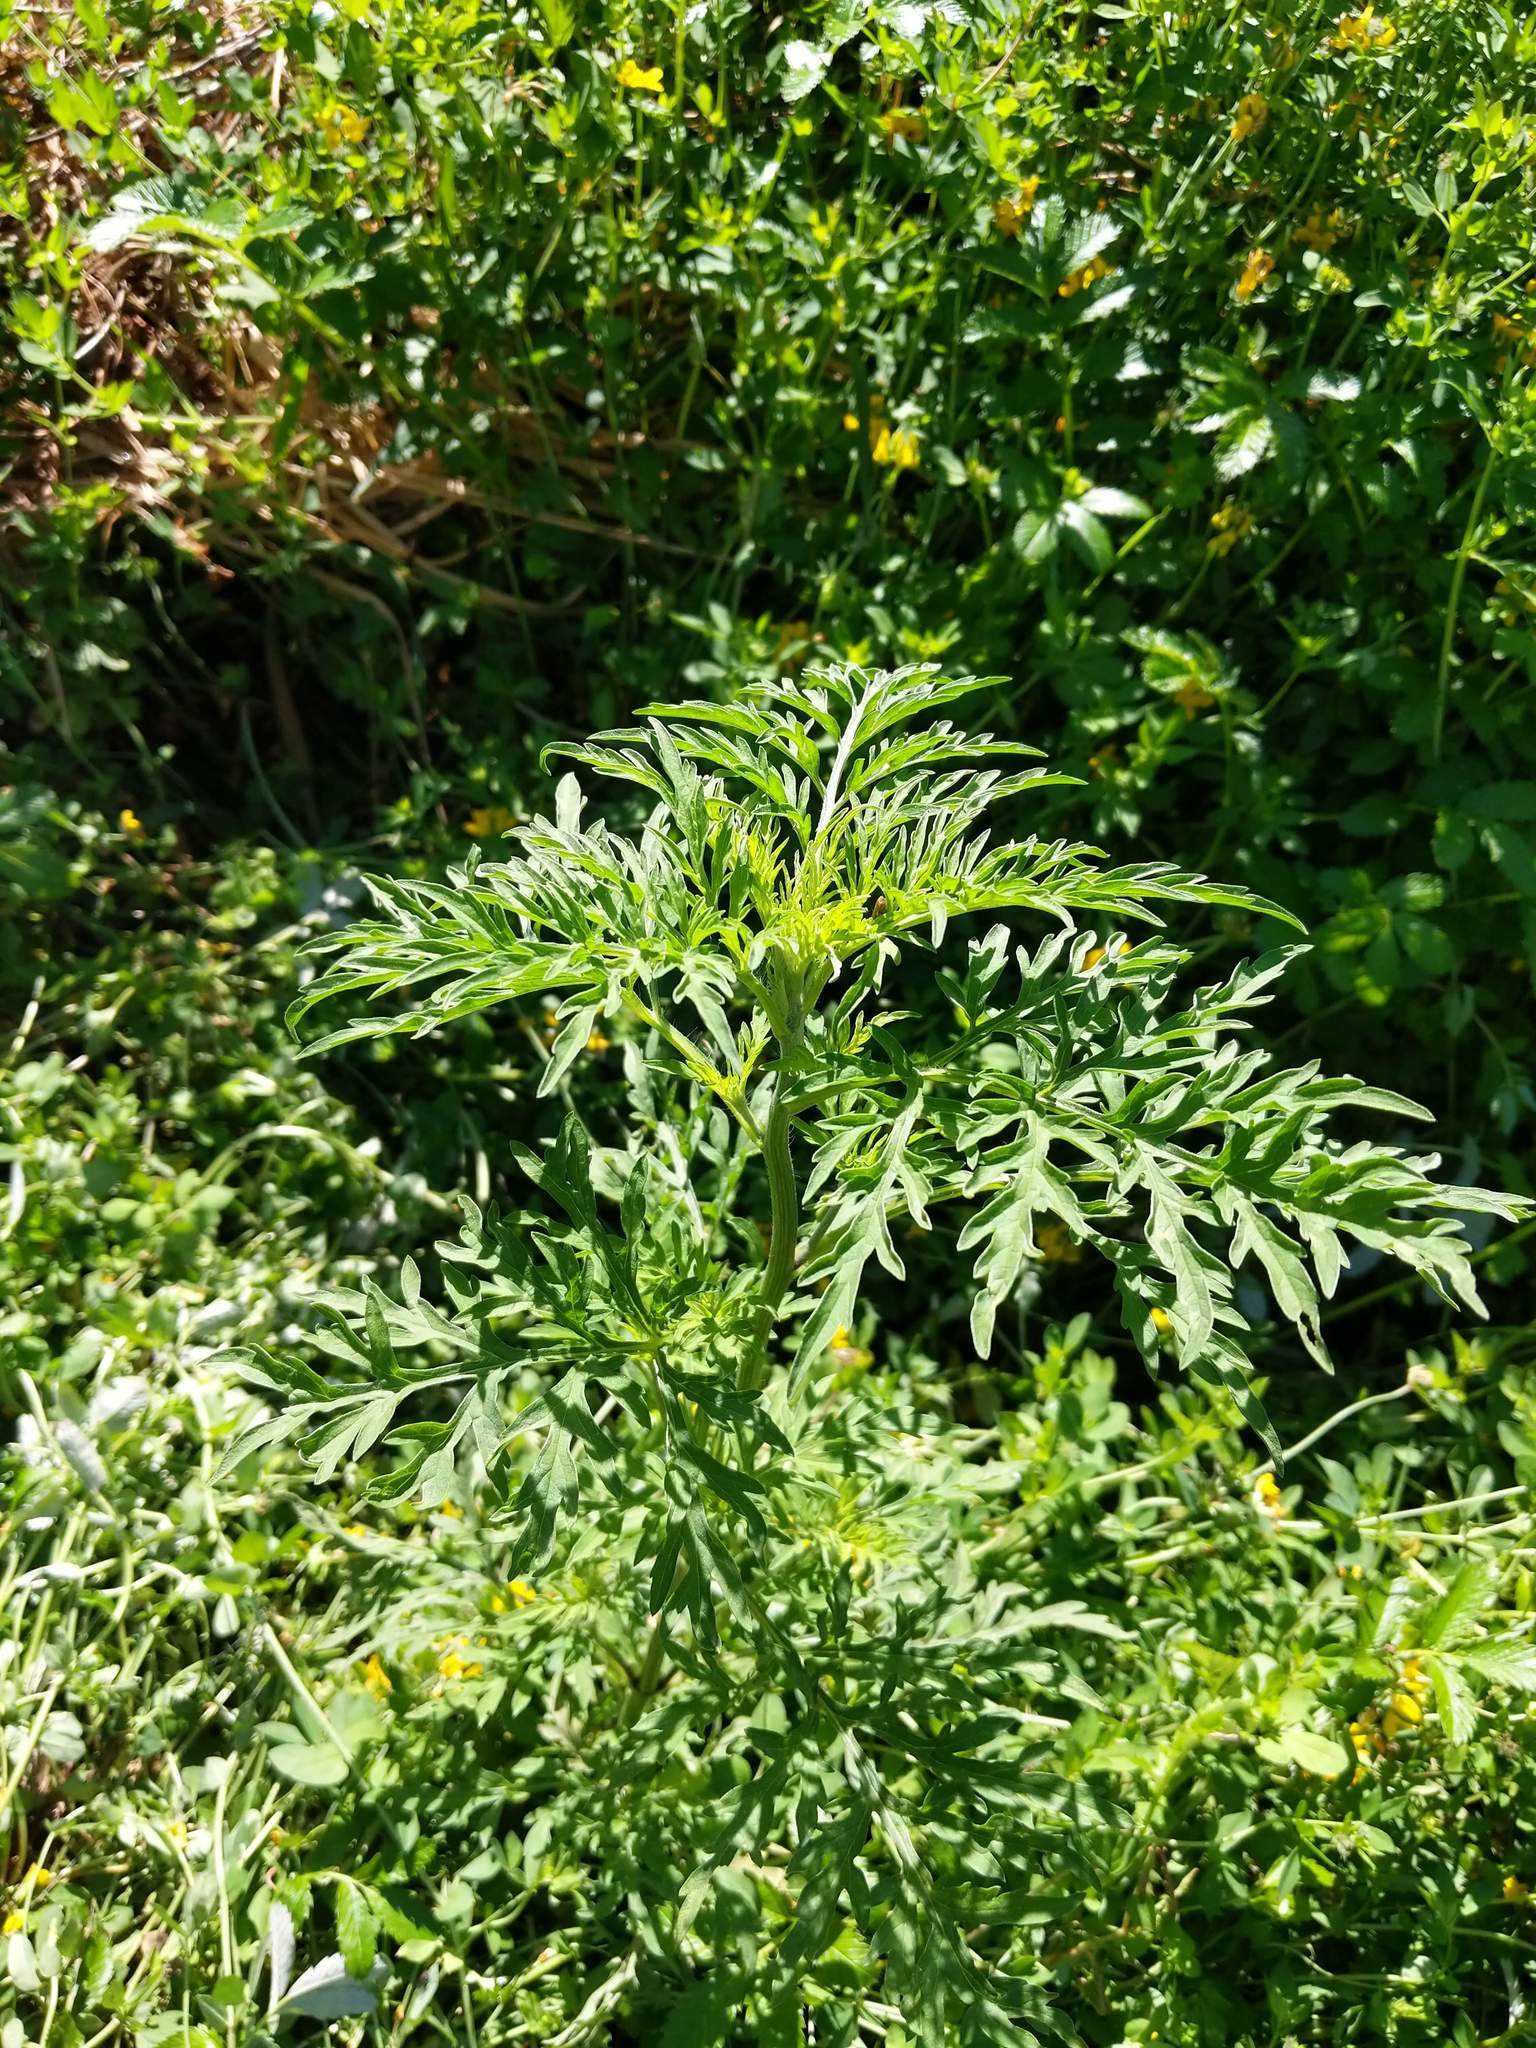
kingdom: Plantae
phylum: Tracheophyta
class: Magnoliopsida
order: Asterales
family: Asteraceae
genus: Ambrosia
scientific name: Ambrosia chamissonis
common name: Beachbur
